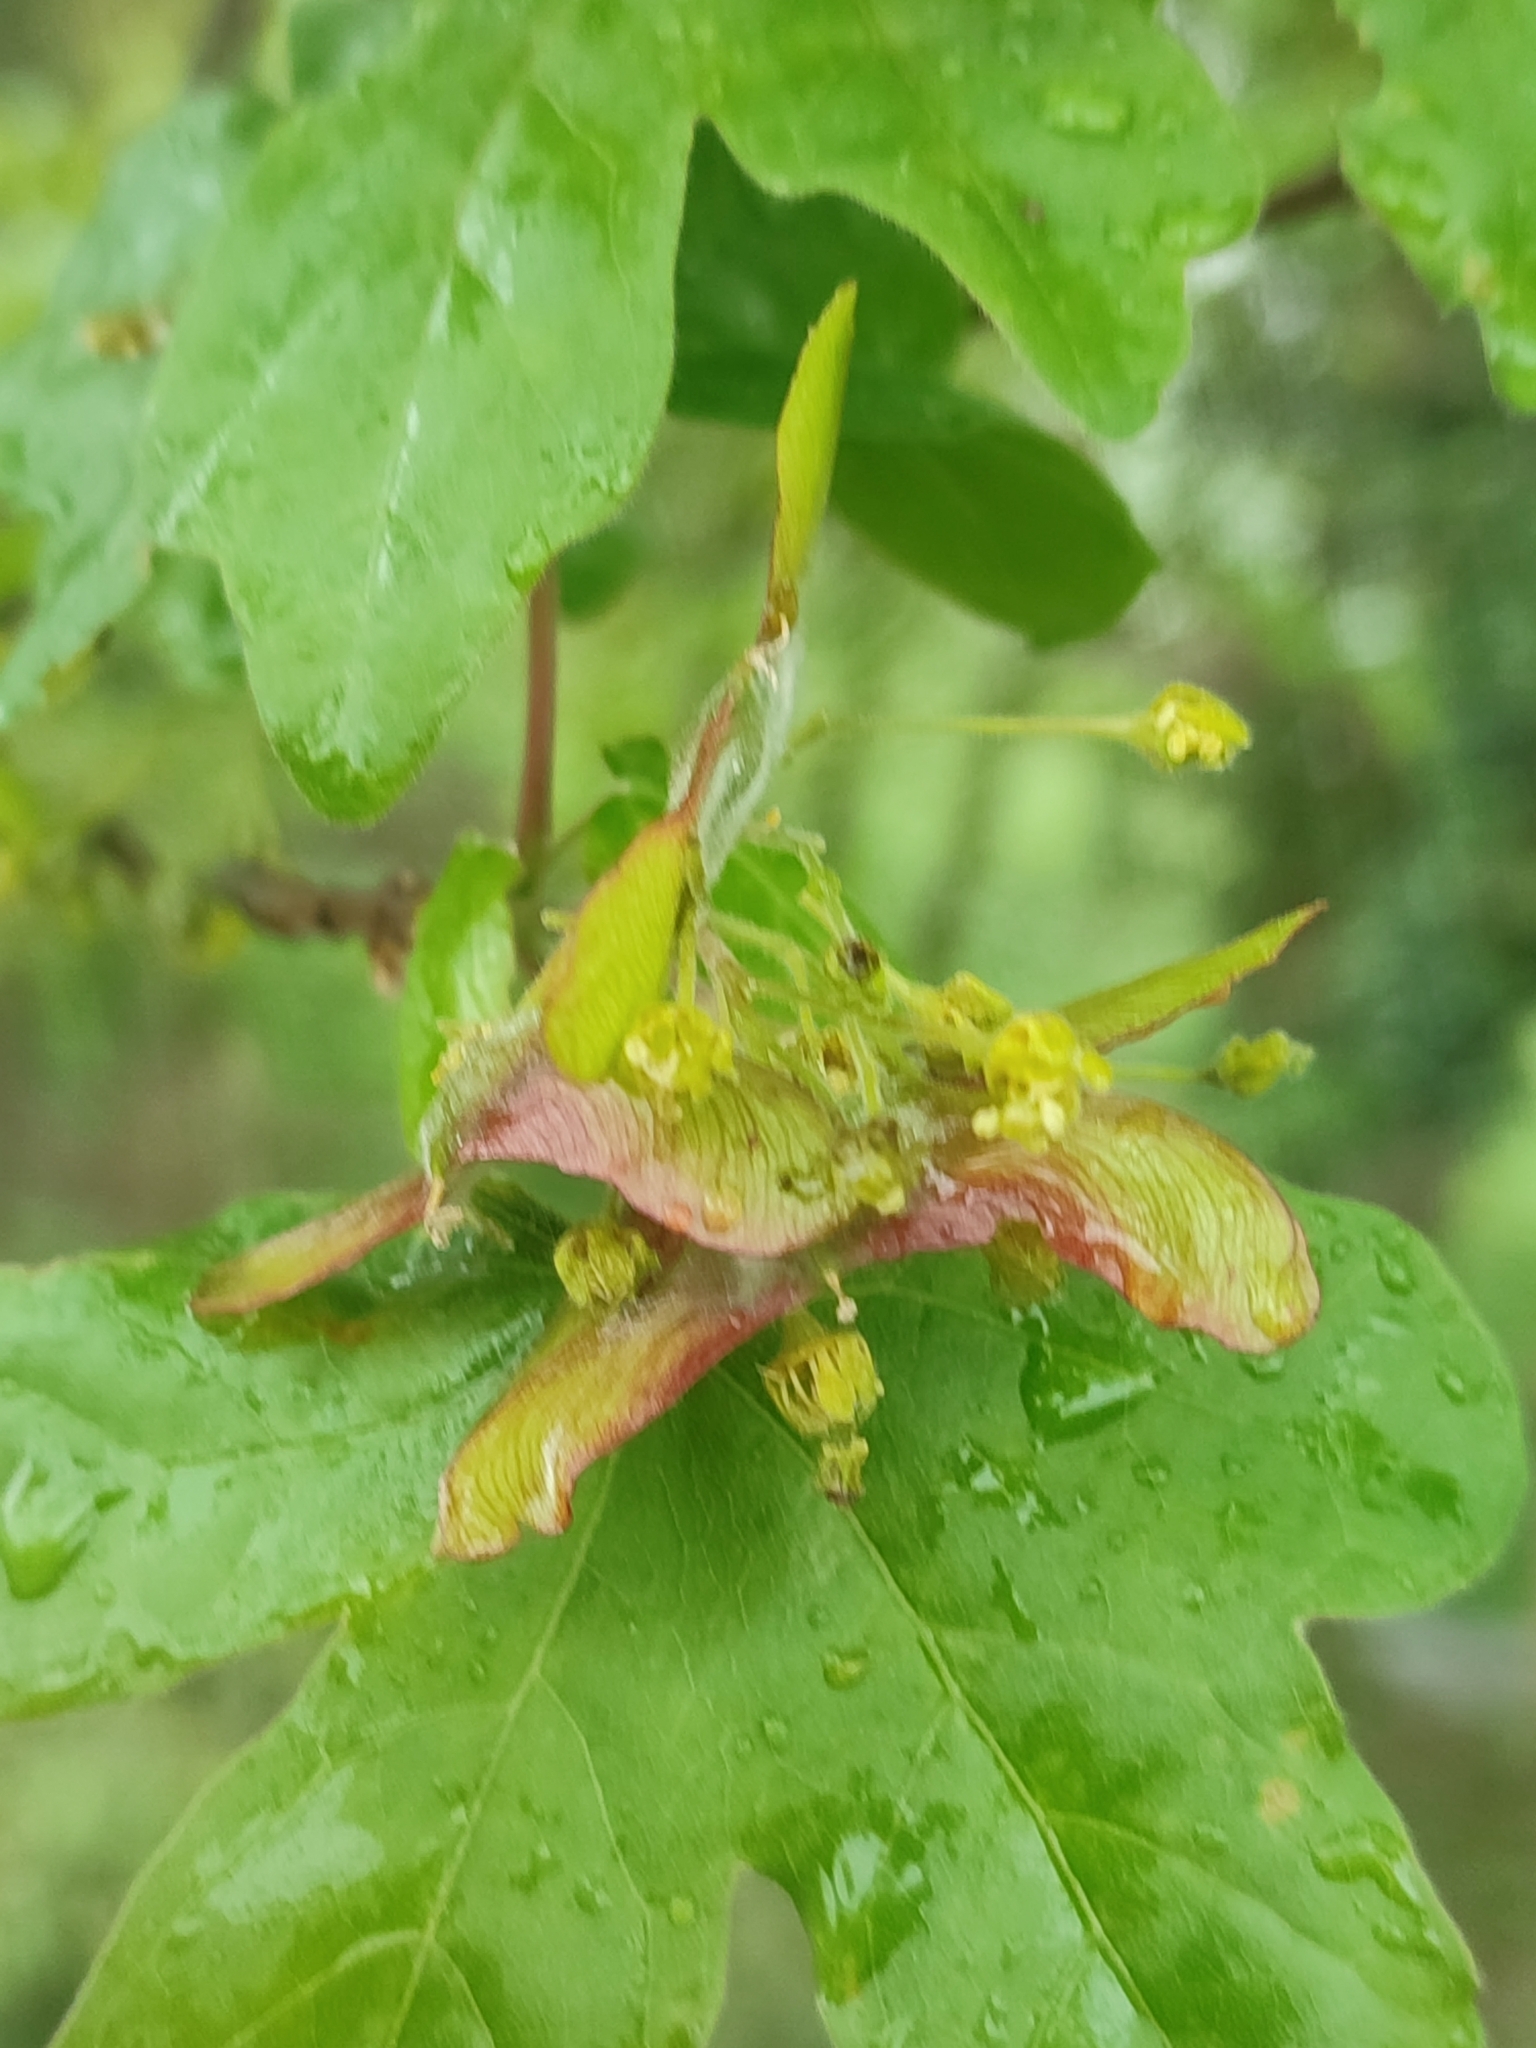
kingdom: Plantae
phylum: Tracheophyta
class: Magnoliopsida
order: Sapindales
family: Sapindaceae
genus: Acer
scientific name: Acer campestre
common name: Field maple
